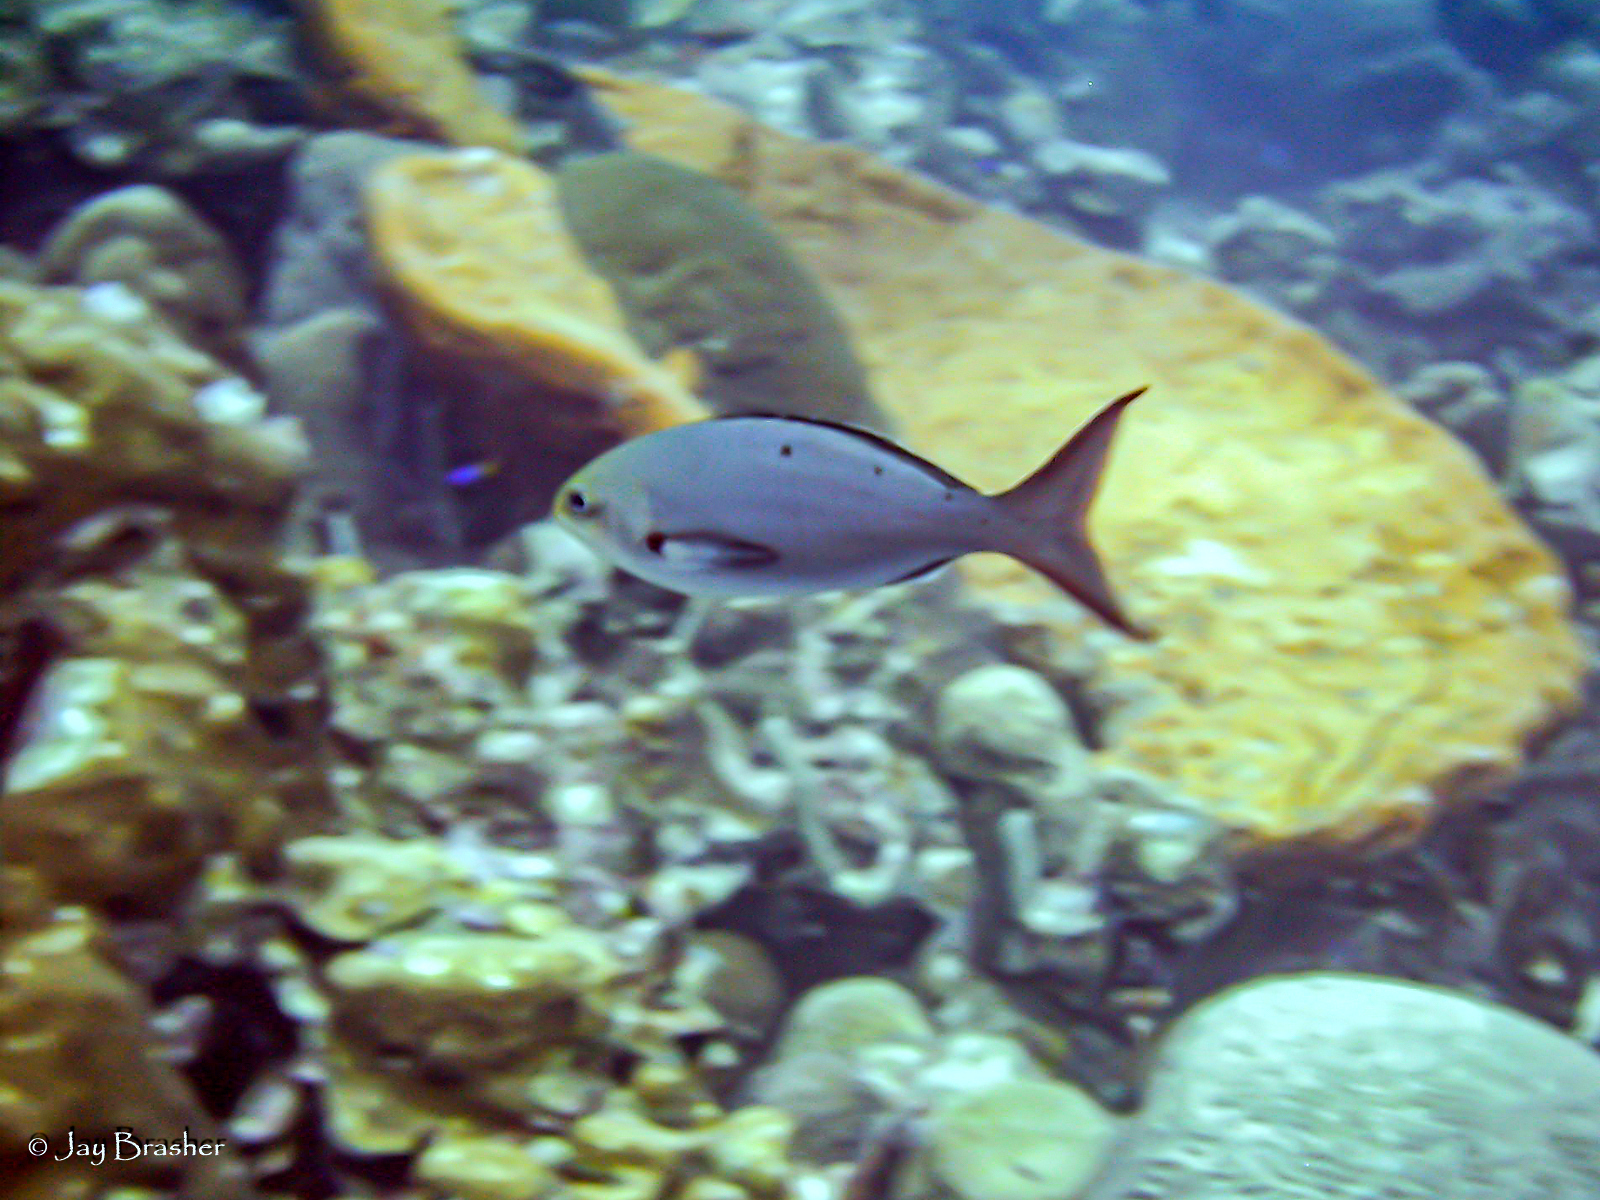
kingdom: Animalia
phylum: Porifera
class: Demospongiae
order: Dictyoceratida
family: Irciniidae
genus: Ircinia
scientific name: Ircinia campana
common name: Vase sponge
